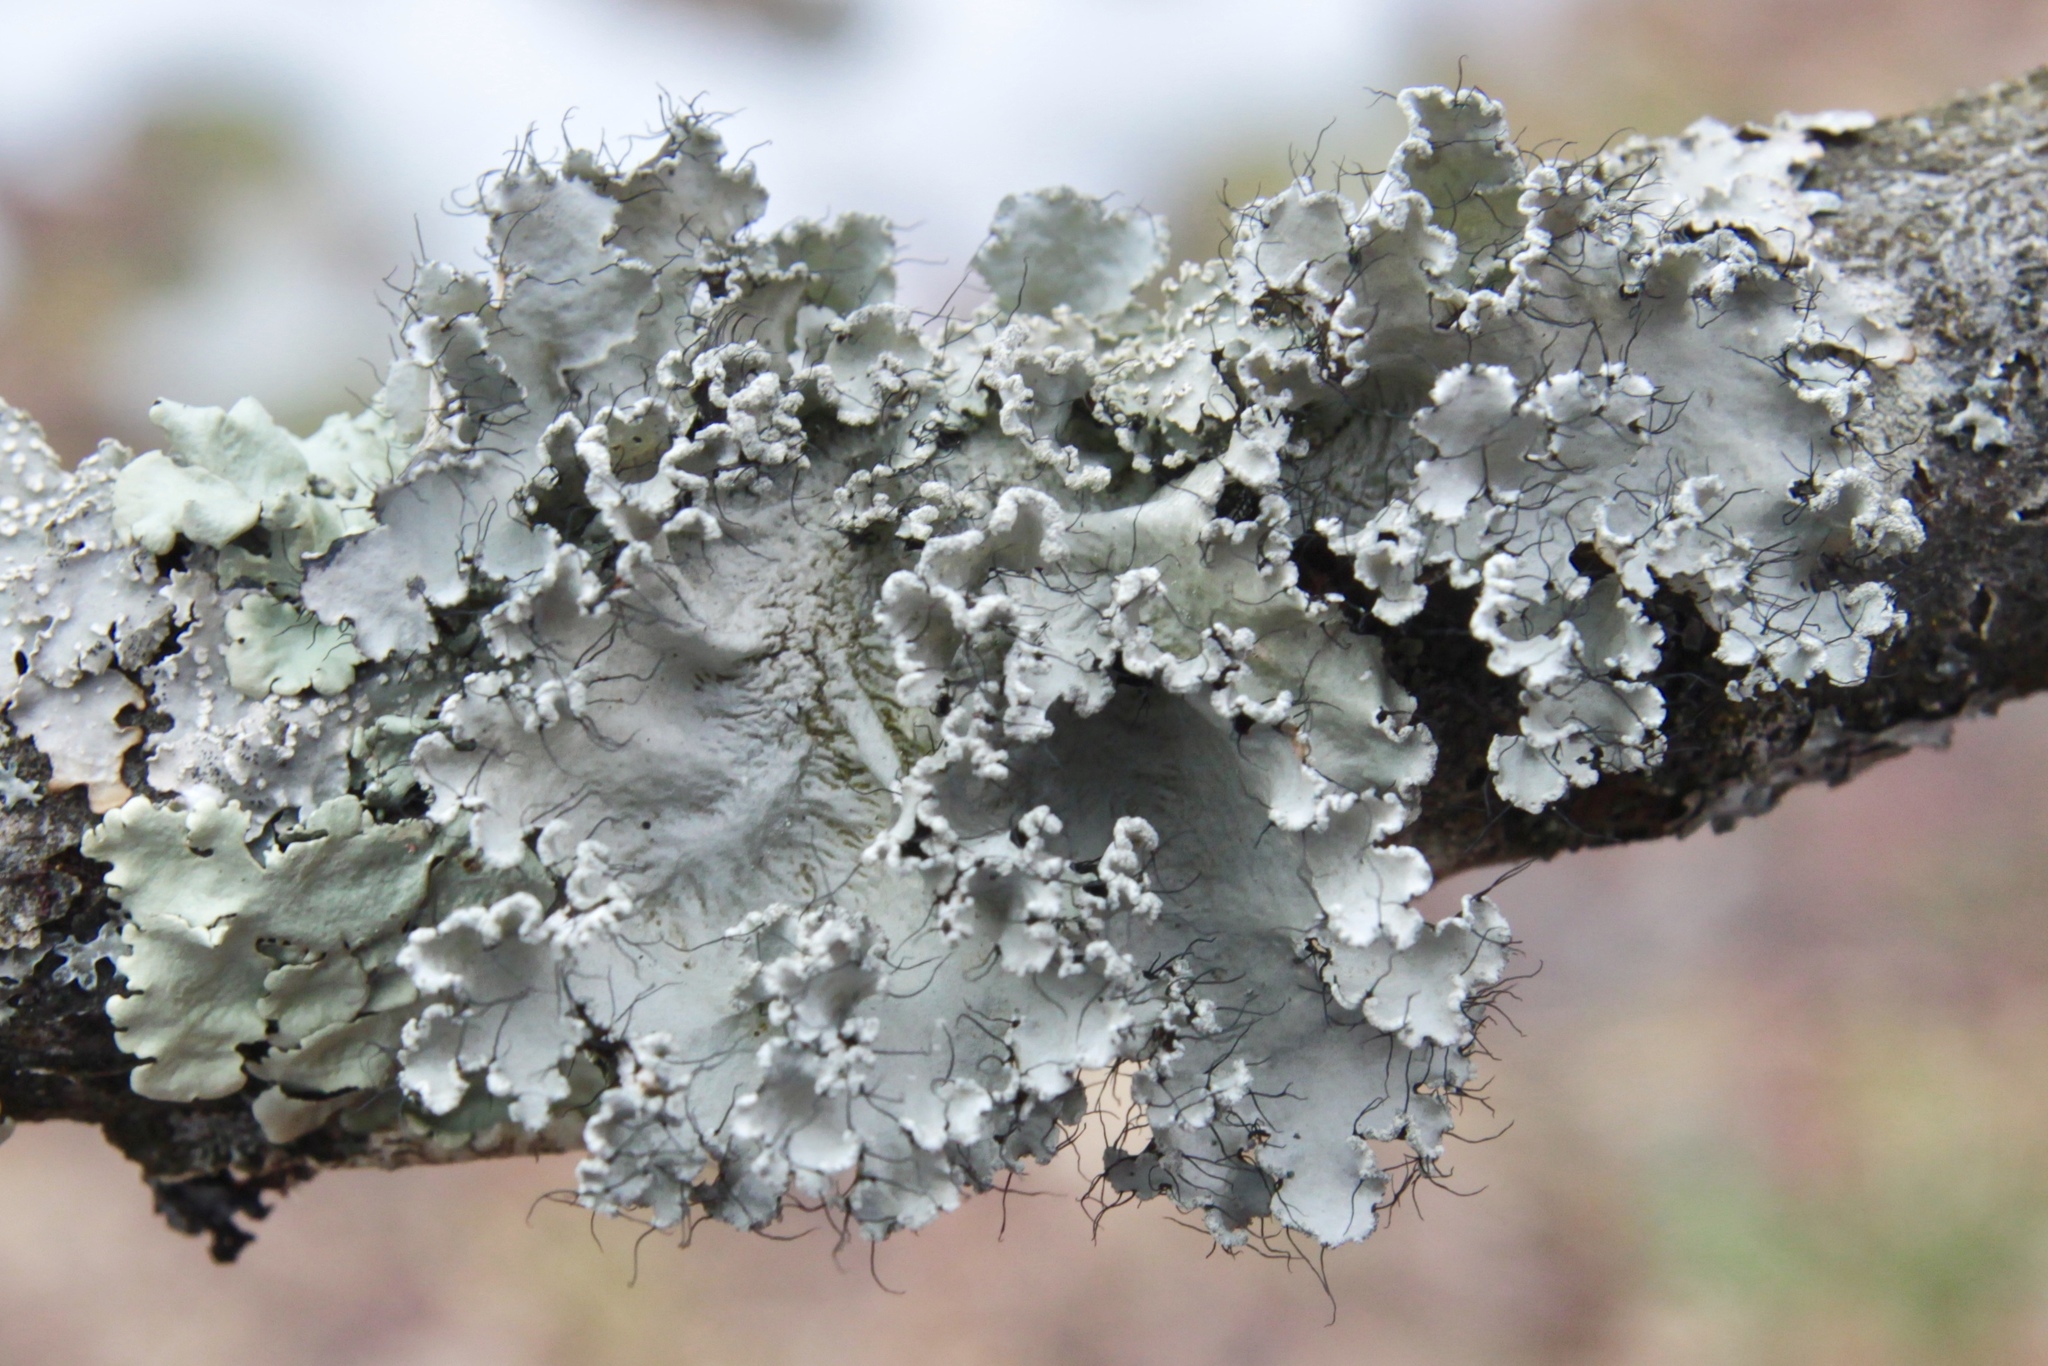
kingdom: Fungi
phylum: Ascomycota
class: Lecanoromycetes
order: Lecanorales
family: Parmeliaceae
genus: Parmotrema
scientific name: Parmotrema hypotropum
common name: Powdered ruffle lichen
